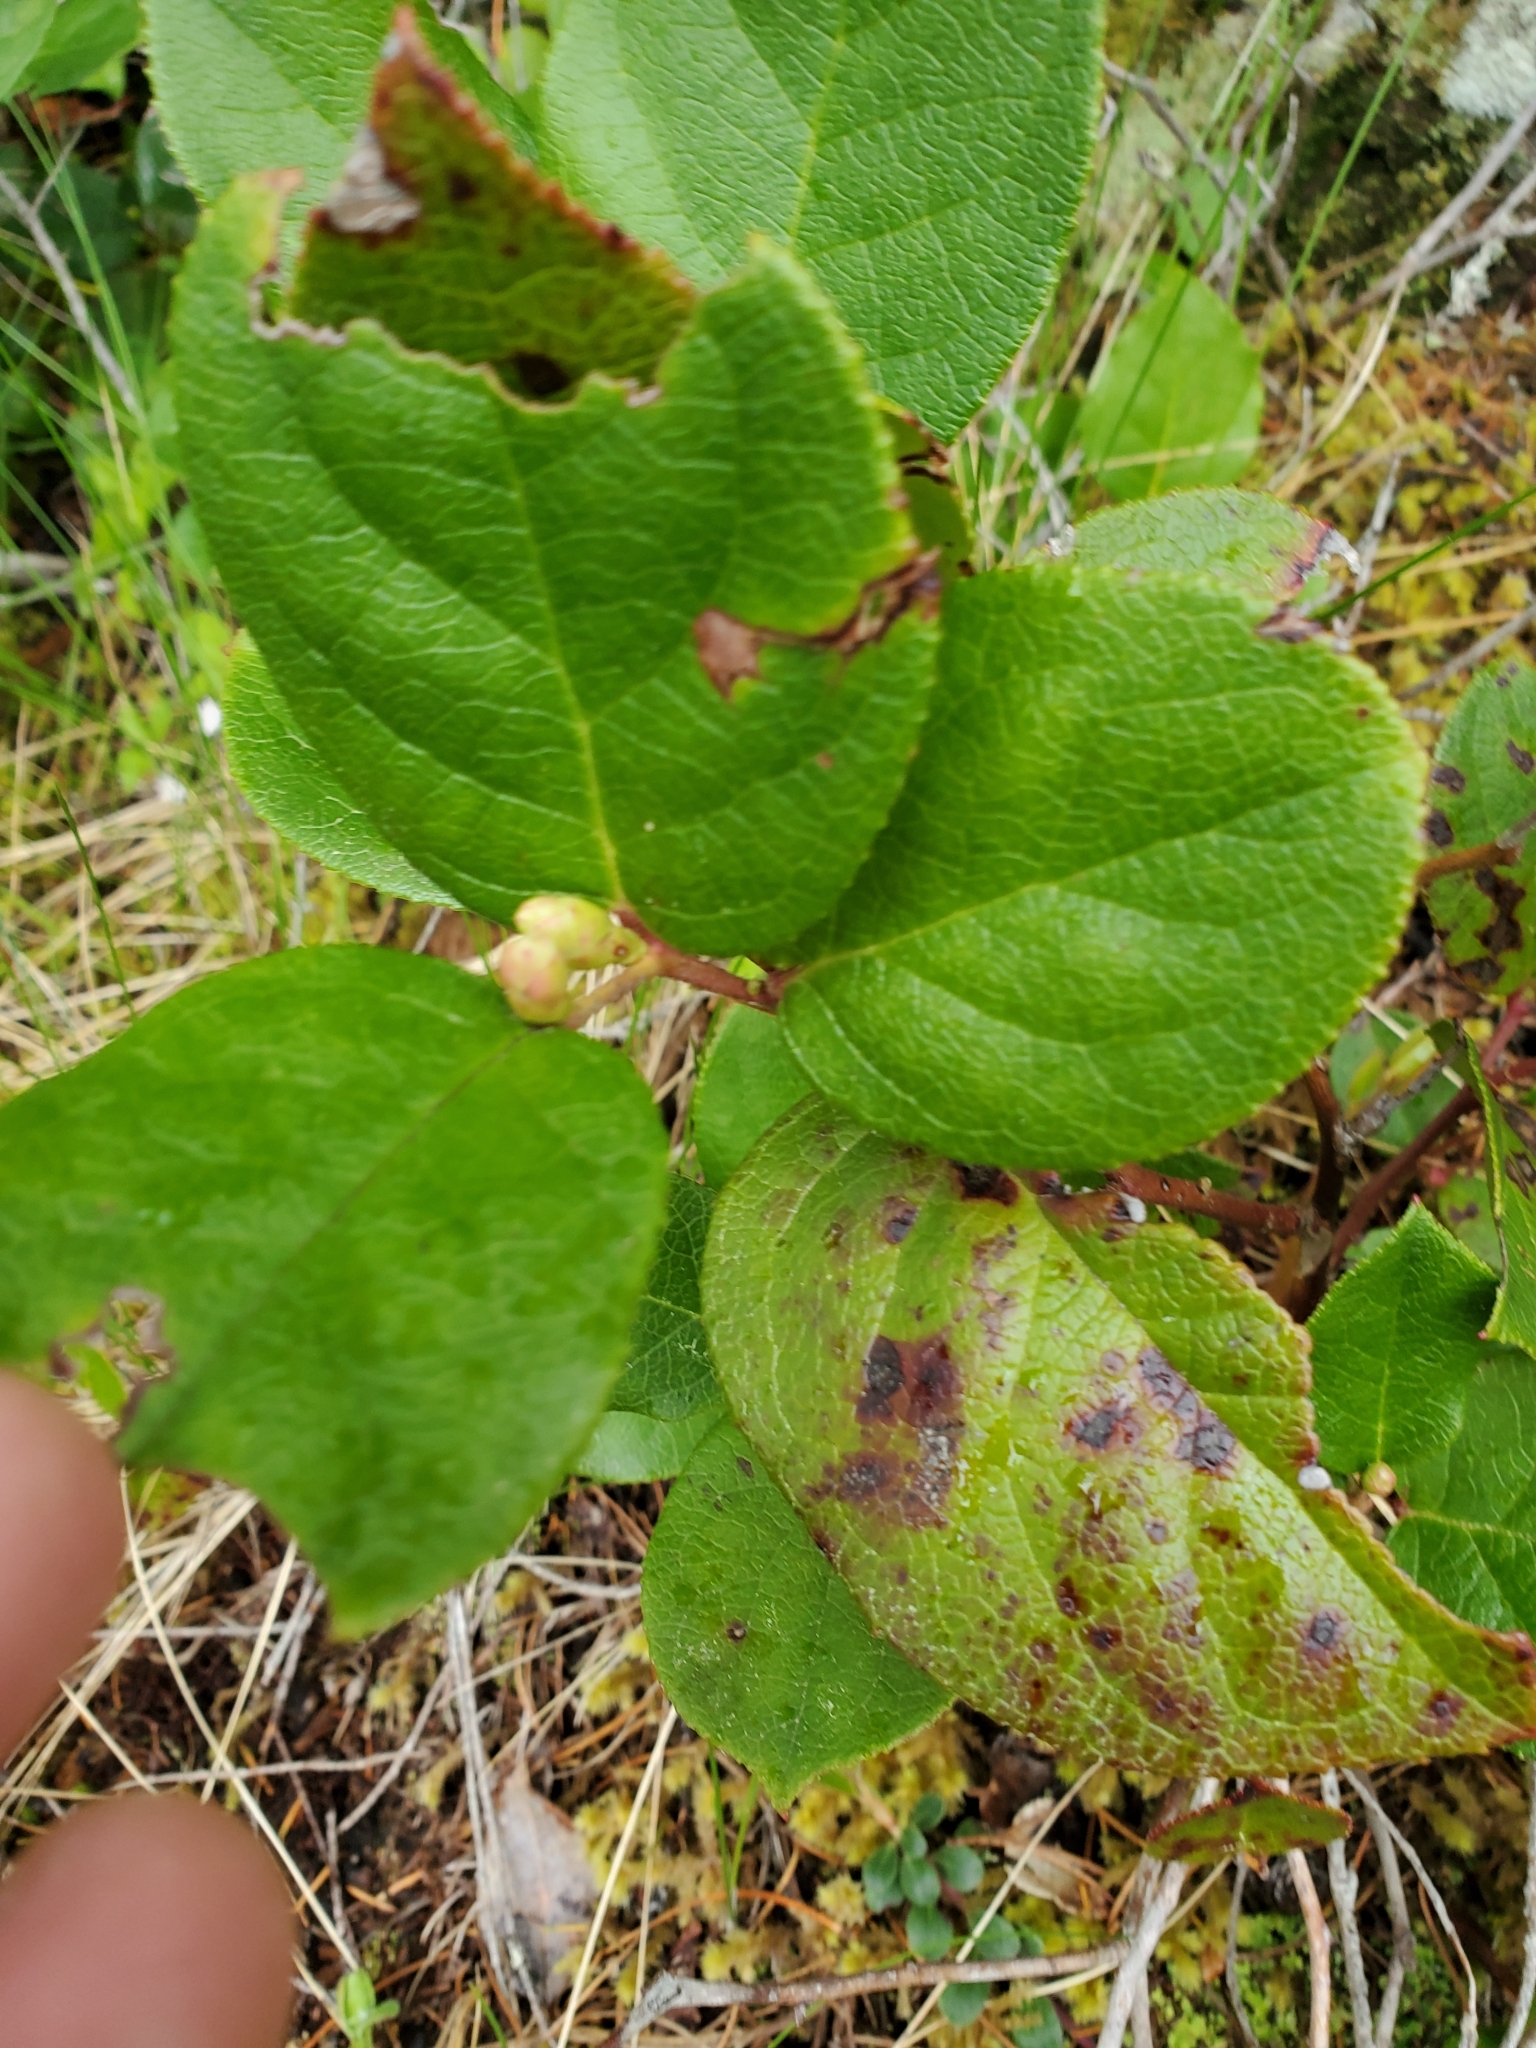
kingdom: Plantae
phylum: Tracheophyta
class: Magnoliopsida
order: Ericales
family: Ericaceae
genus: Gaultheria
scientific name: Gaultheria shallon
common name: Shallon
